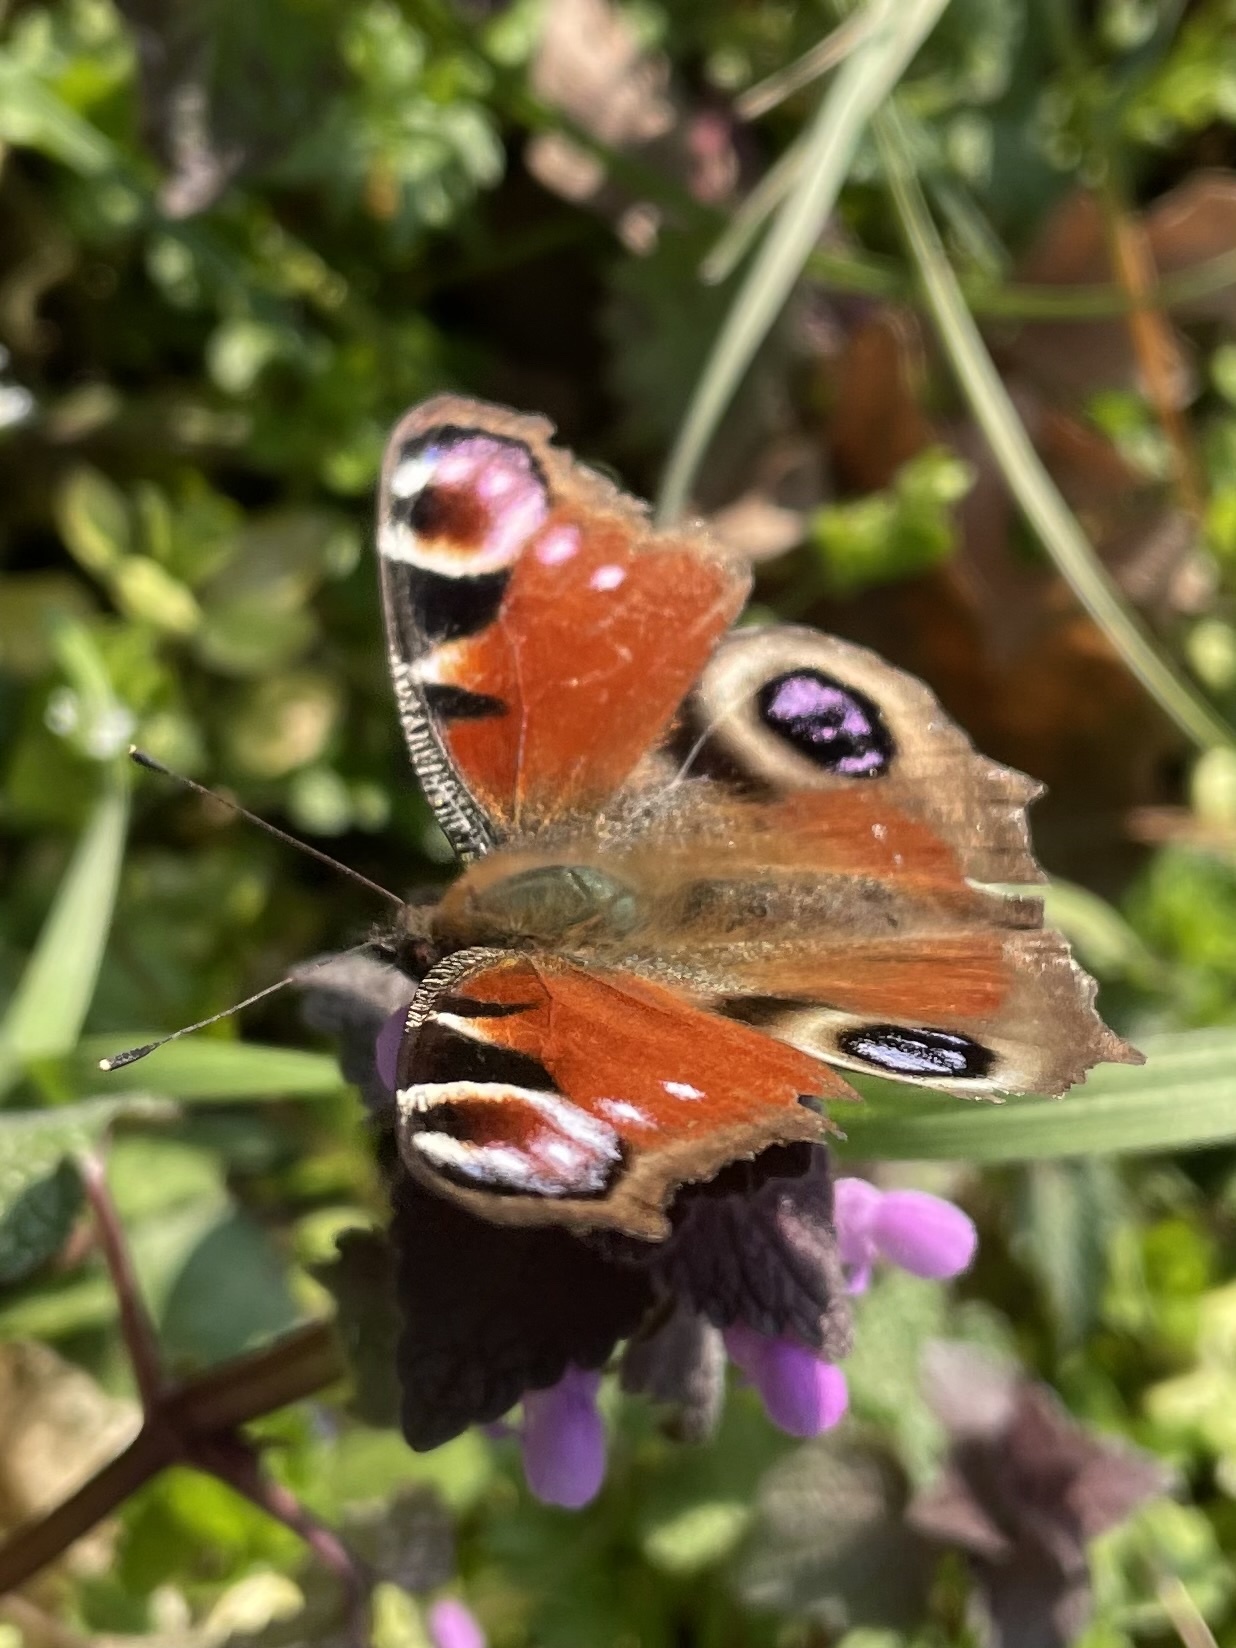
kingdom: Animalia
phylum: Arthropoda
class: Insecta
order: Lepidoptera
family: Nymphalidae
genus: Aglais
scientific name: Aglais io
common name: Peacock
